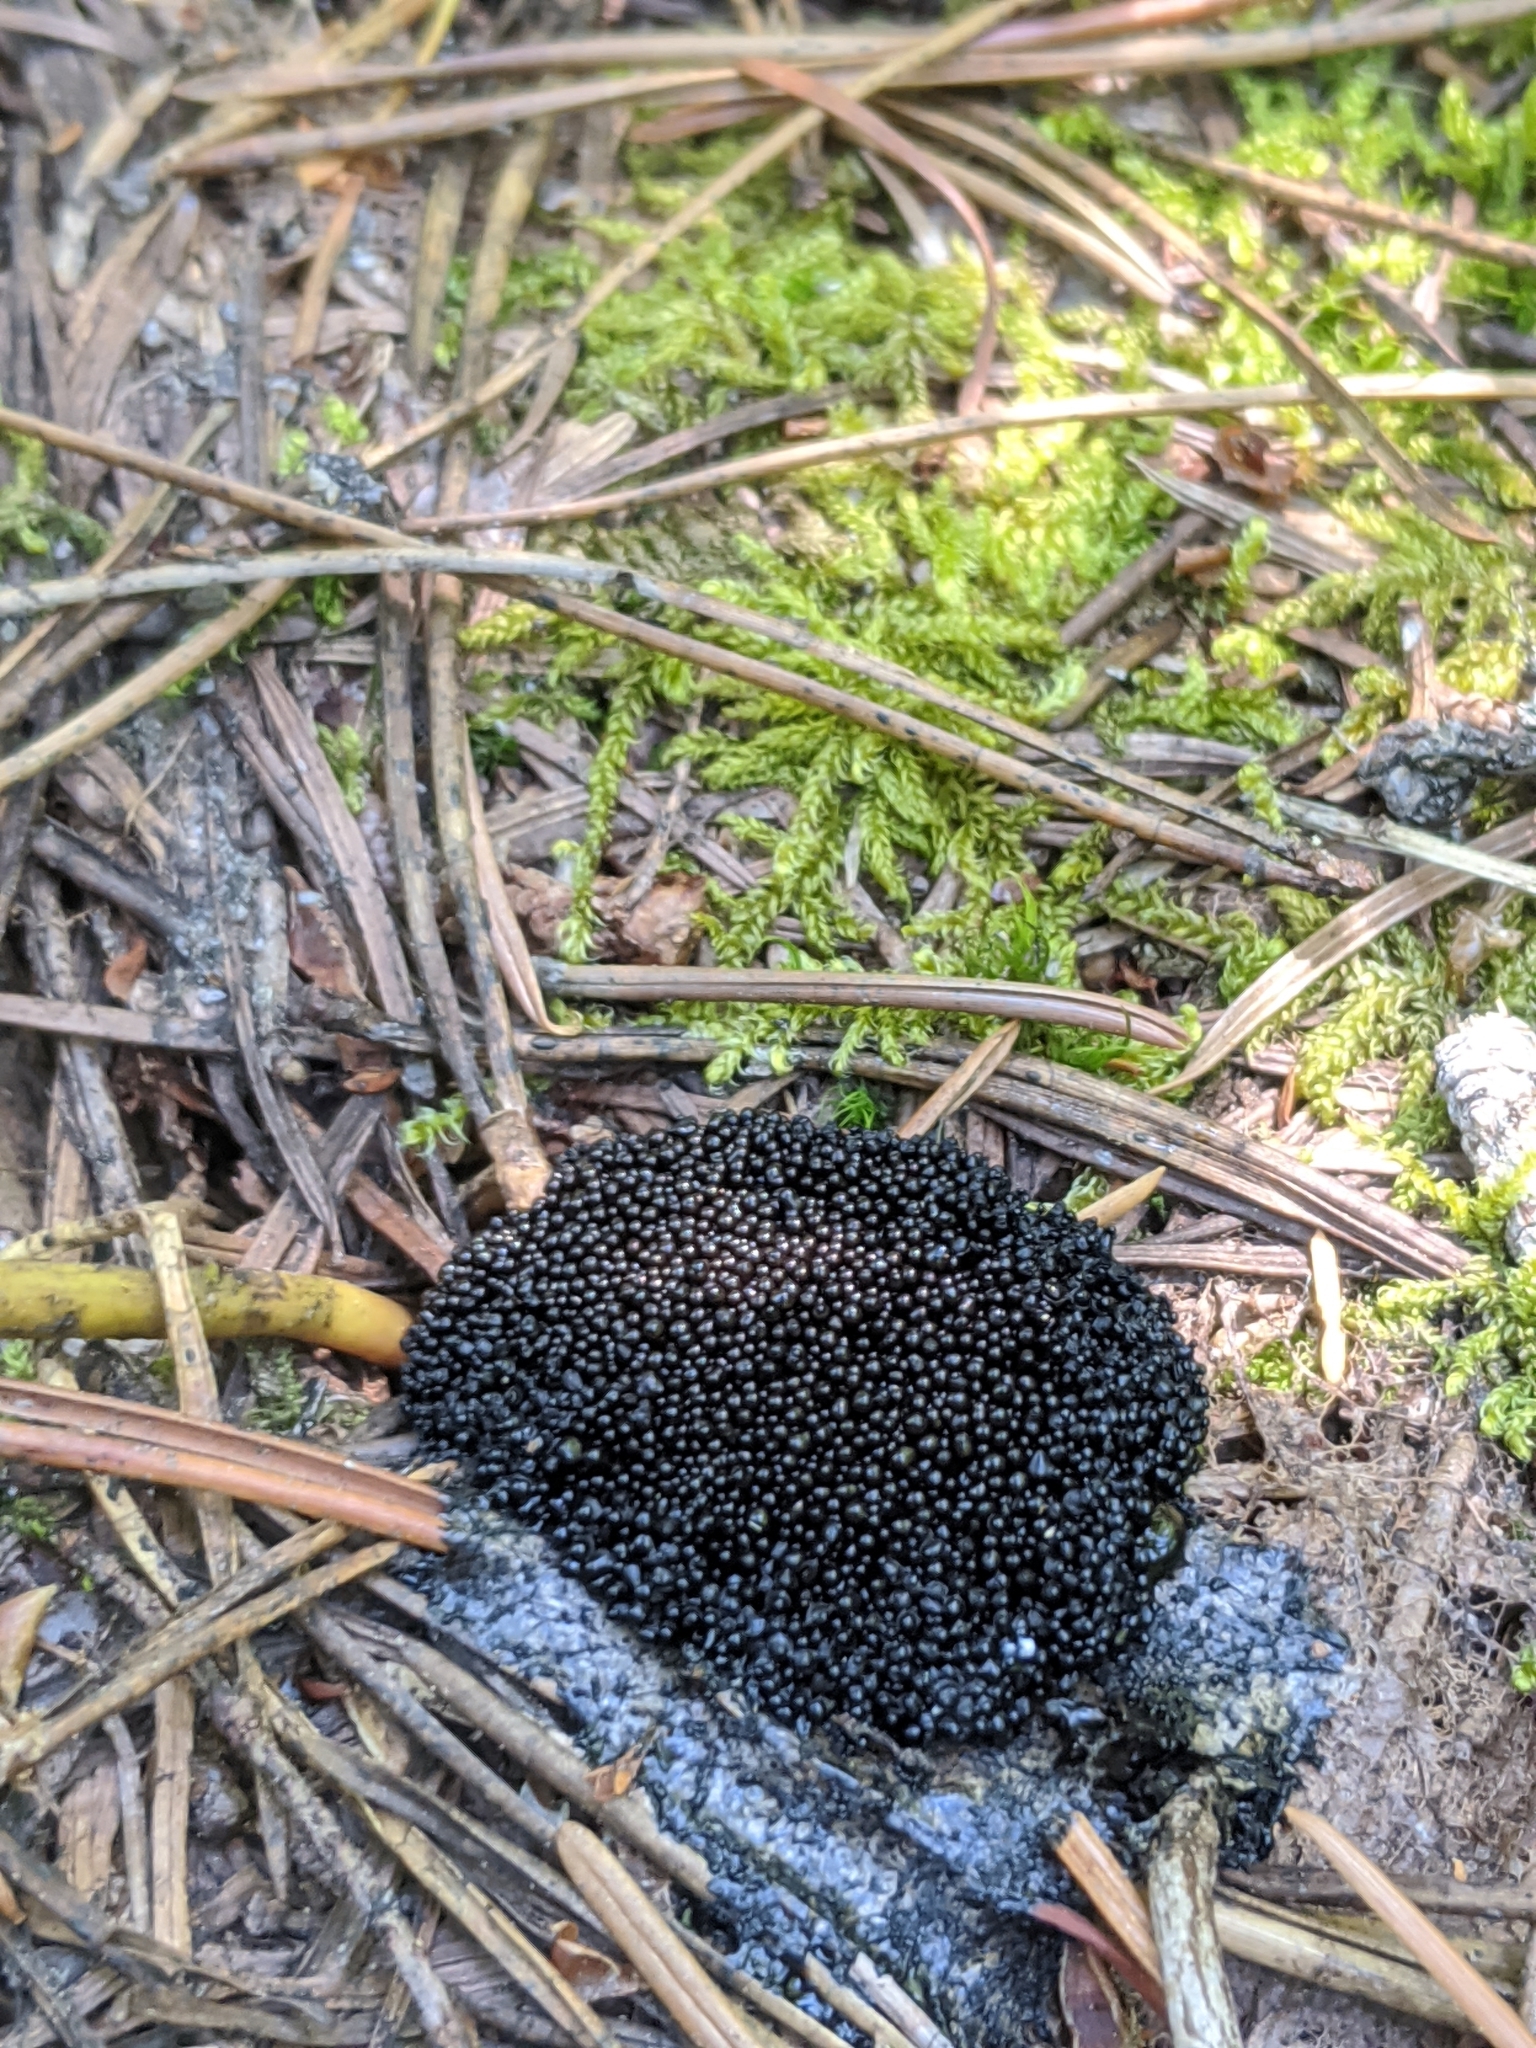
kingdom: Protozoa
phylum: Mycetozoa
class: Myxomycetes
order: Cribrariales
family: Cribrariaceae
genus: Lindbladia
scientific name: Lindbladia tubulina
